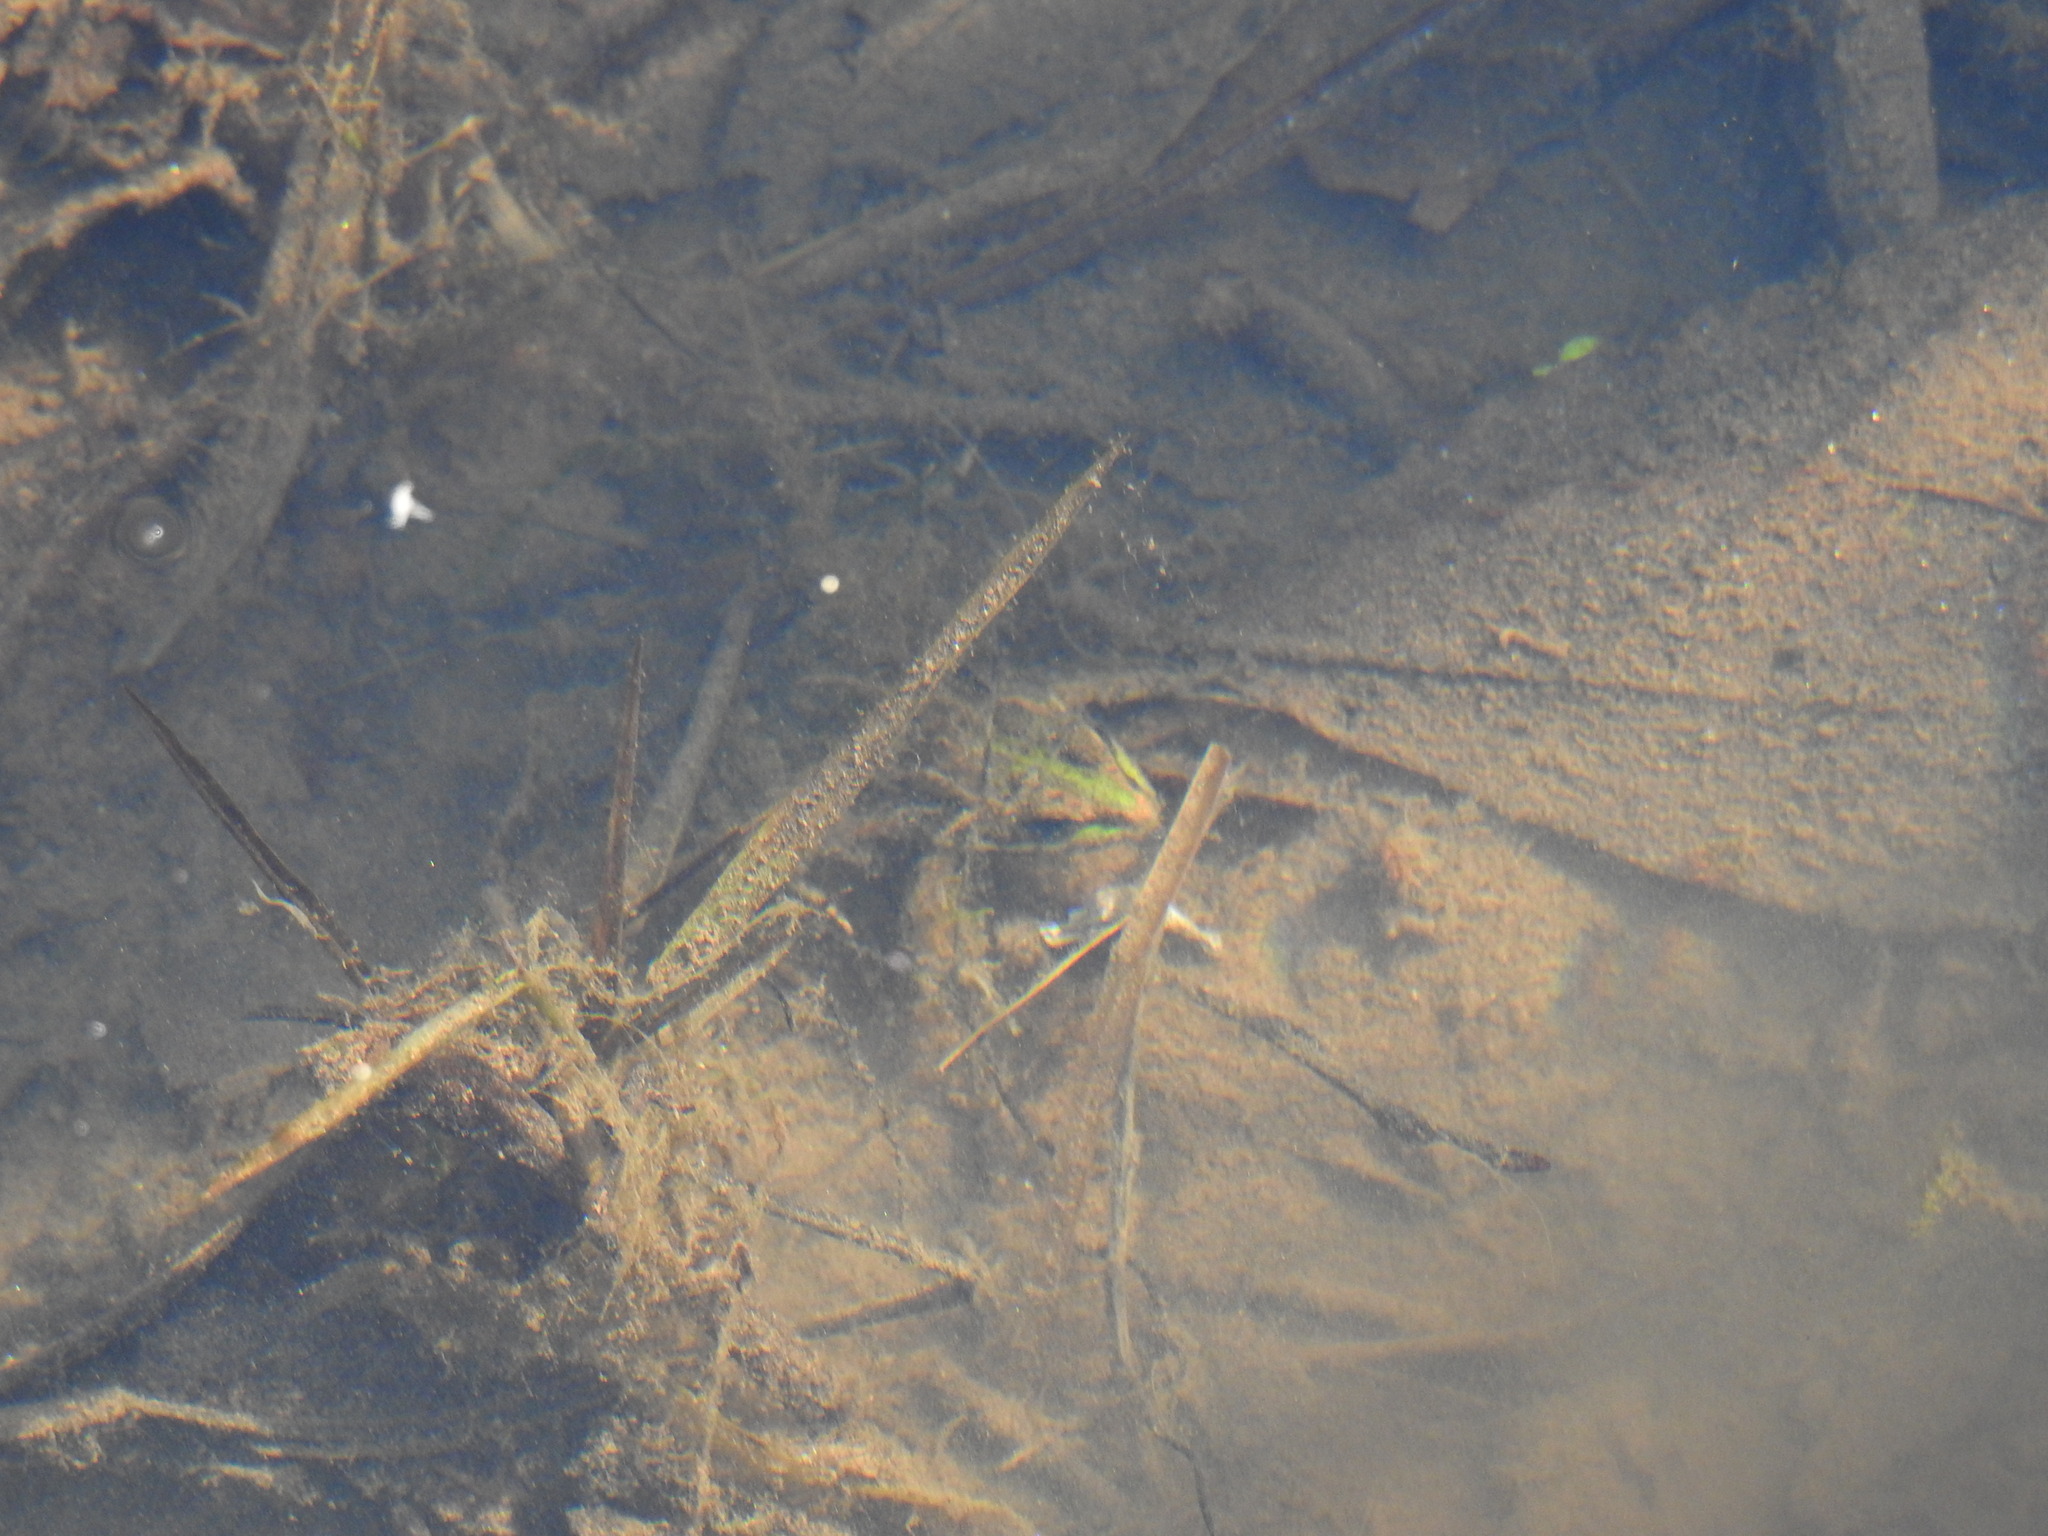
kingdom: Animalia
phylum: Chordata
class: Amphibia
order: Anura
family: Ranidae
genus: Pelophylax
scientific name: Pelophylax perezi
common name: Perez's frog
